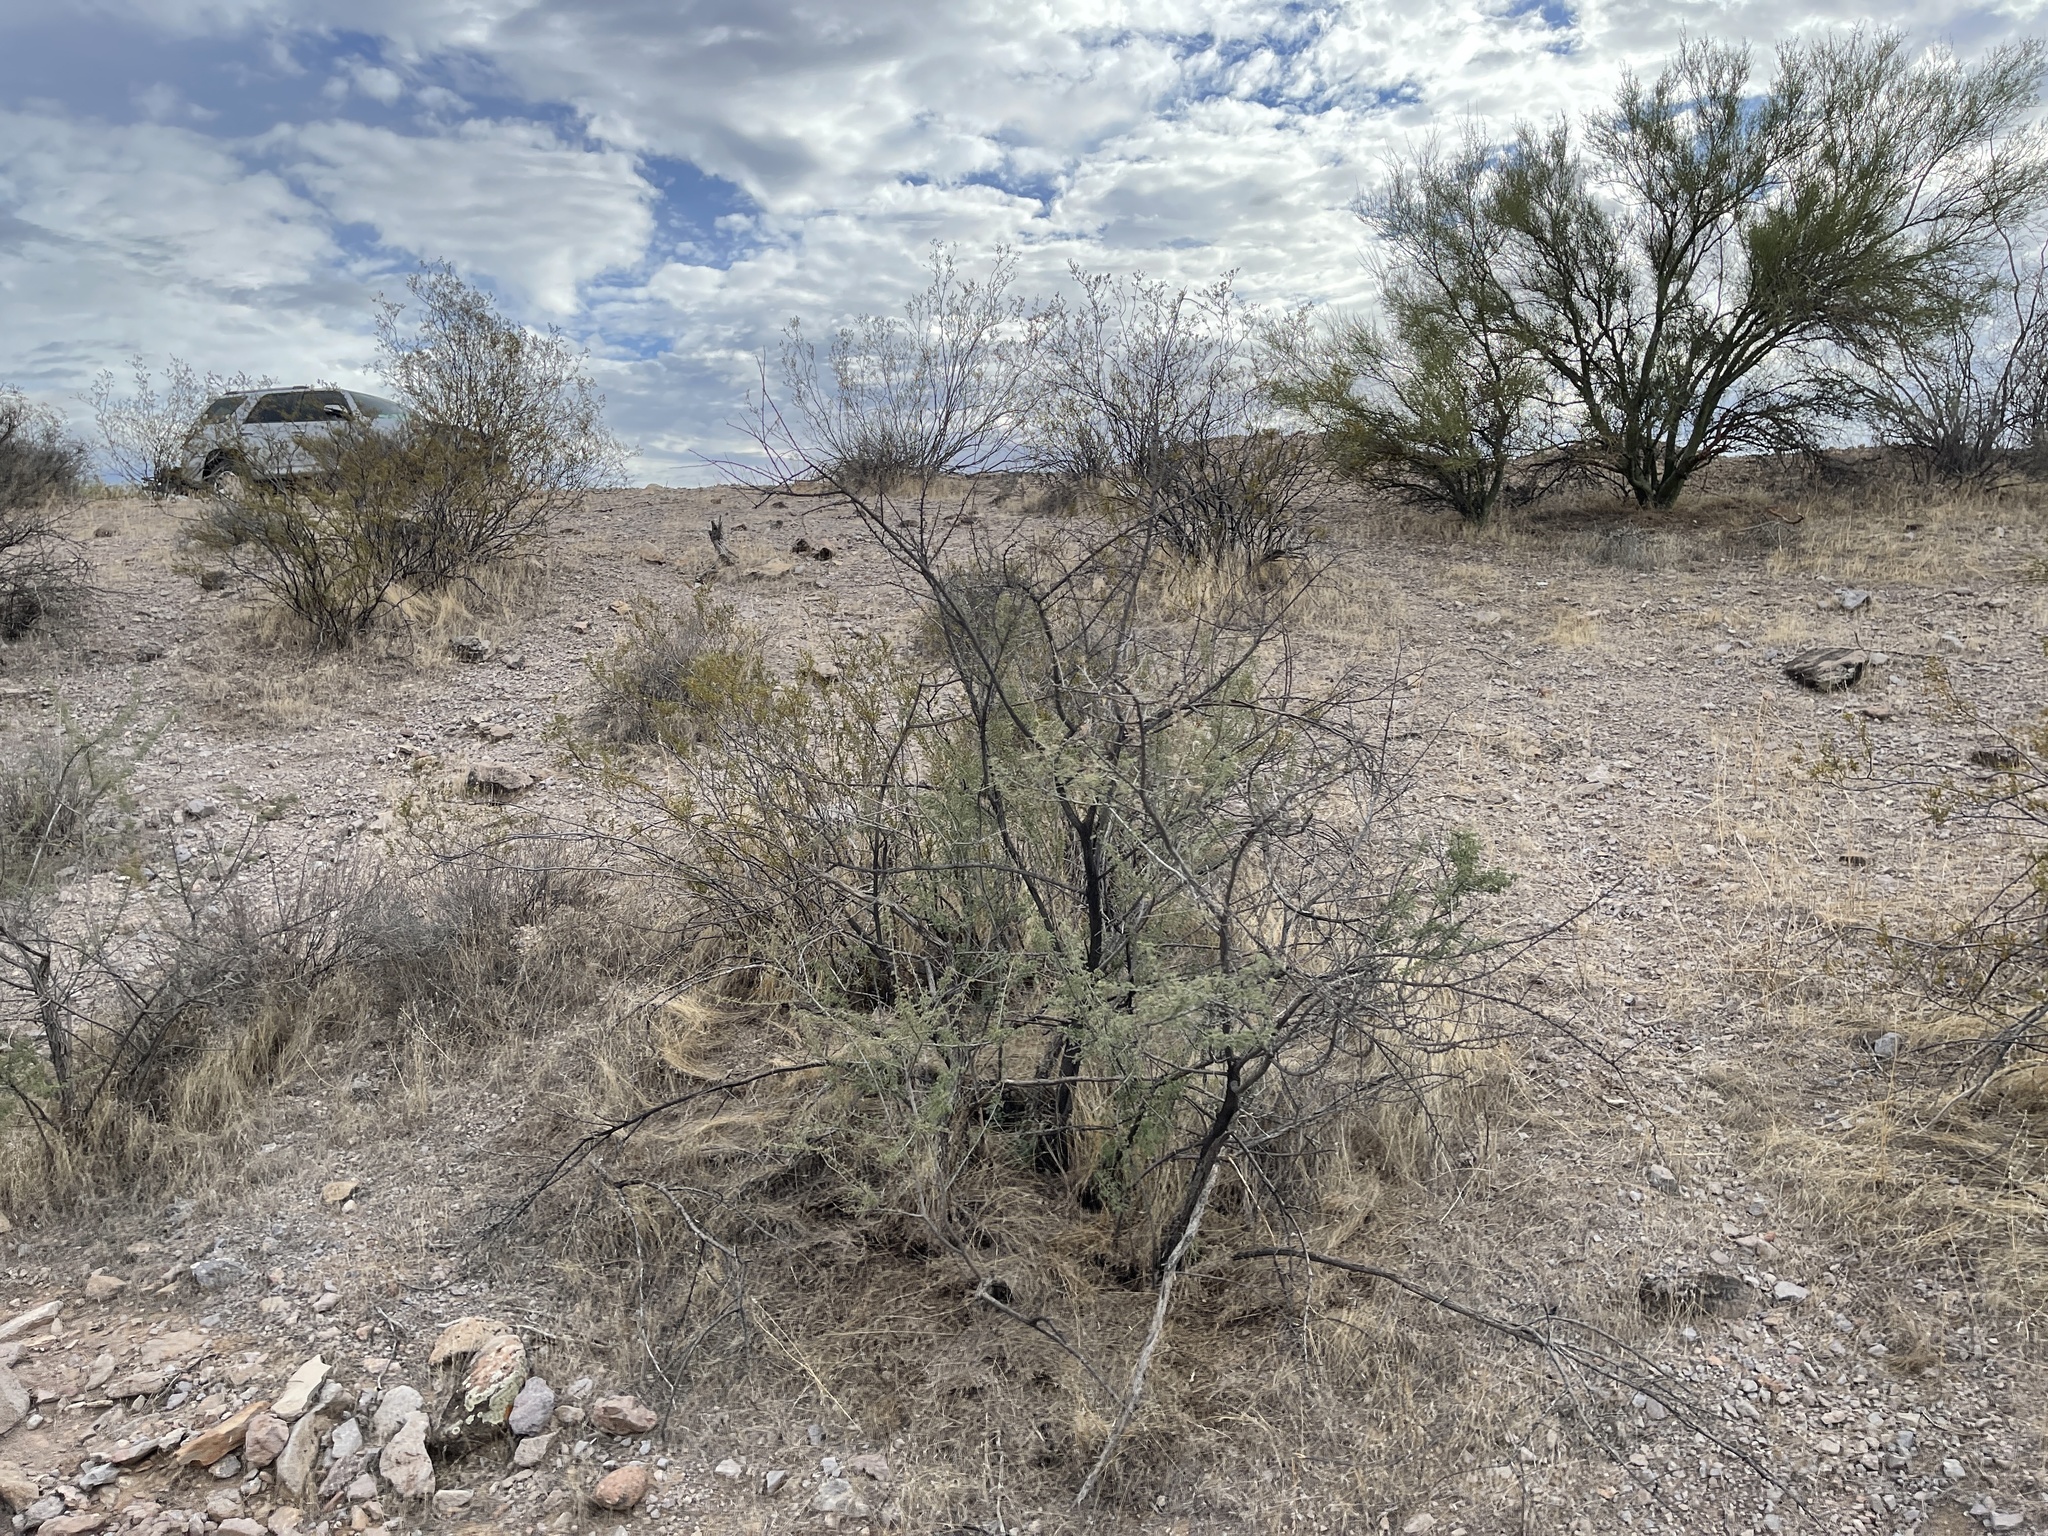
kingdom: Plantae
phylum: Tracheophyta
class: Magnoliopsida
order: Fabales
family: Fabaceae
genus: Senegalia
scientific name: Senegalia greggii
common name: Texas-mimosa
